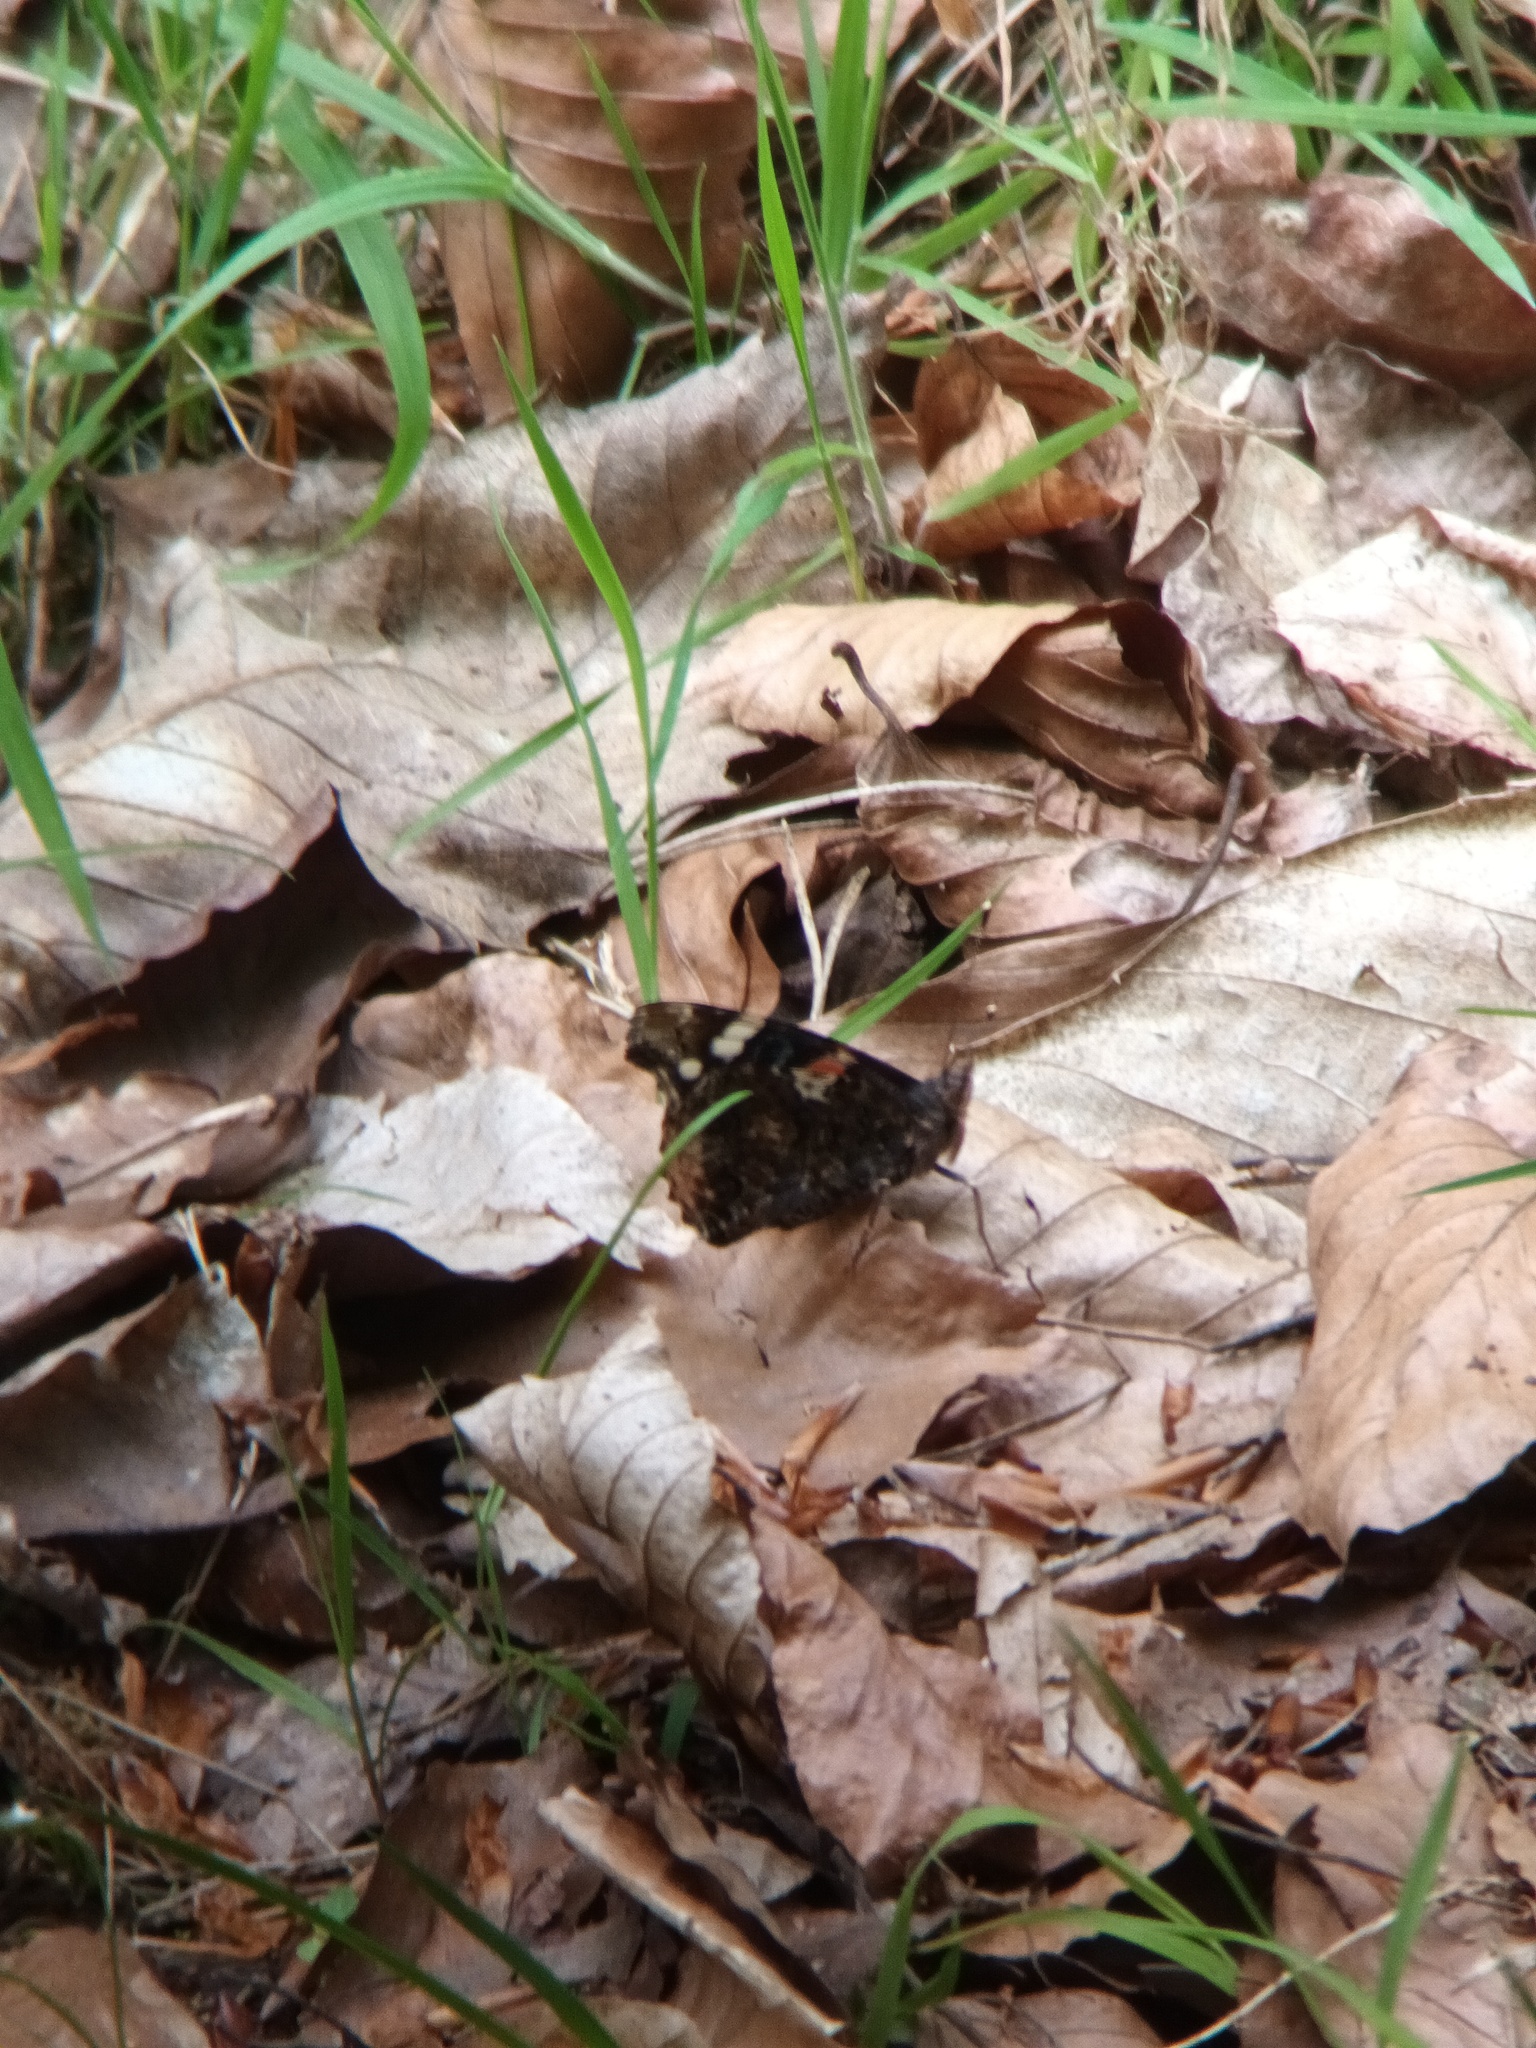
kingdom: Animalia
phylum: Arthropoda
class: Insecta
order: Lepidoptera
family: Nymphalidae
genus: Vanessa
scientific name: Vanessa atalanta
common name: Red admiral
